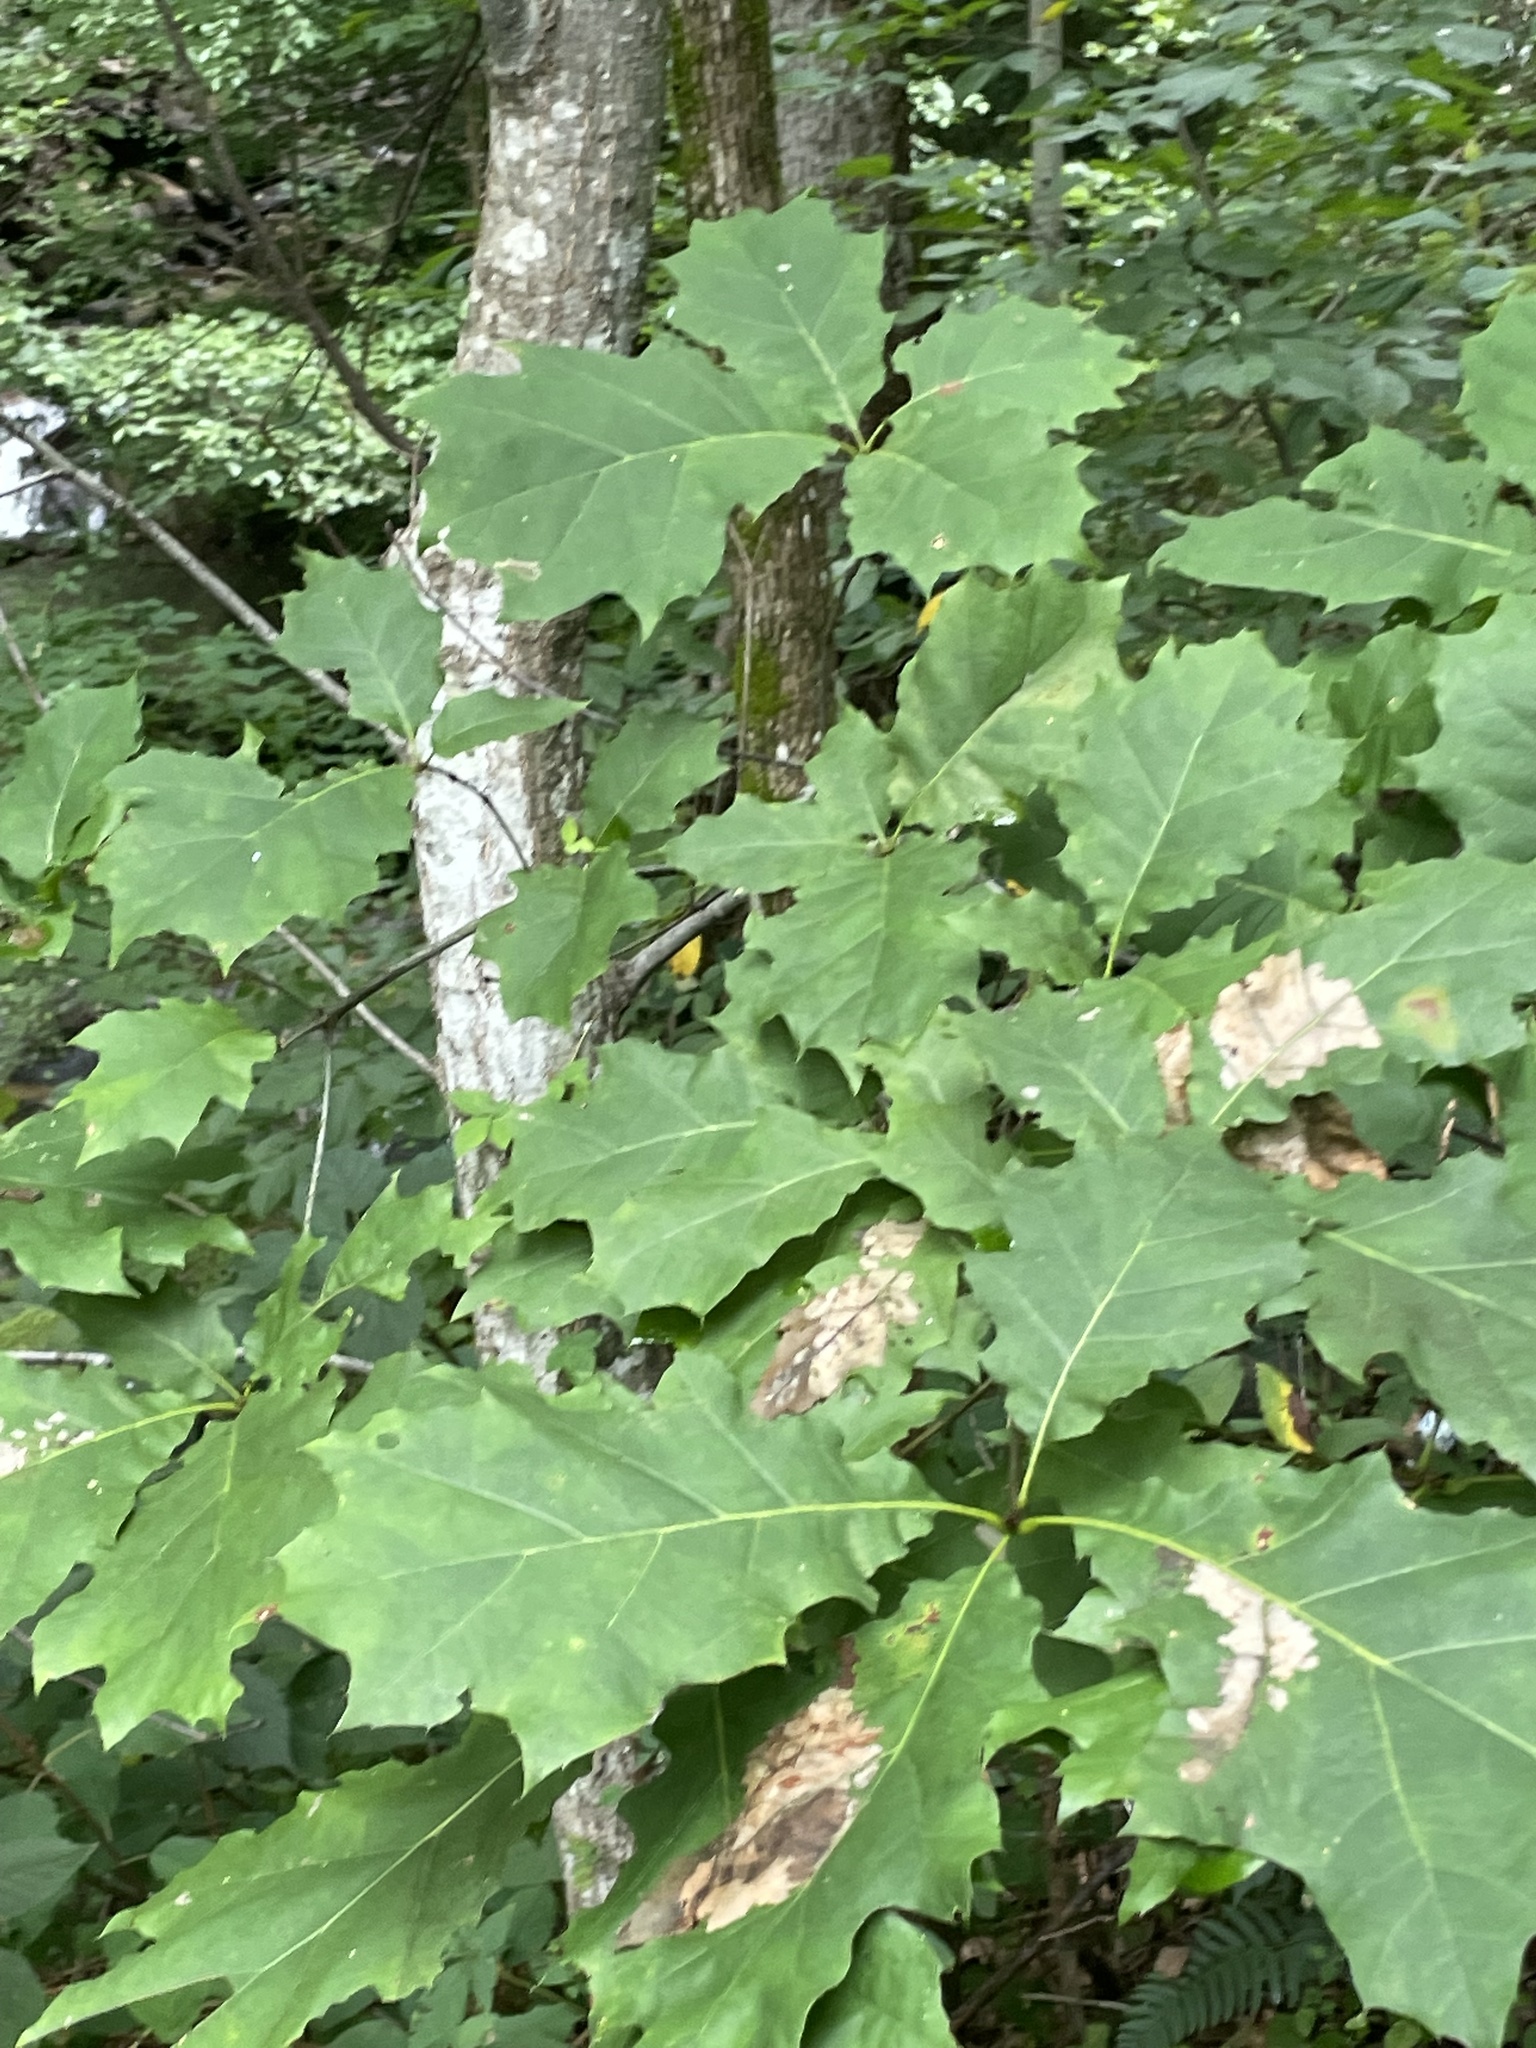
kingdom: Plantae
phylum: Tracheophyta
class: Magnoliopsida
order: Fagales
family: Fagaceae
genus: Quercus
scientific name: Quercus rubra
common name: Red oak
